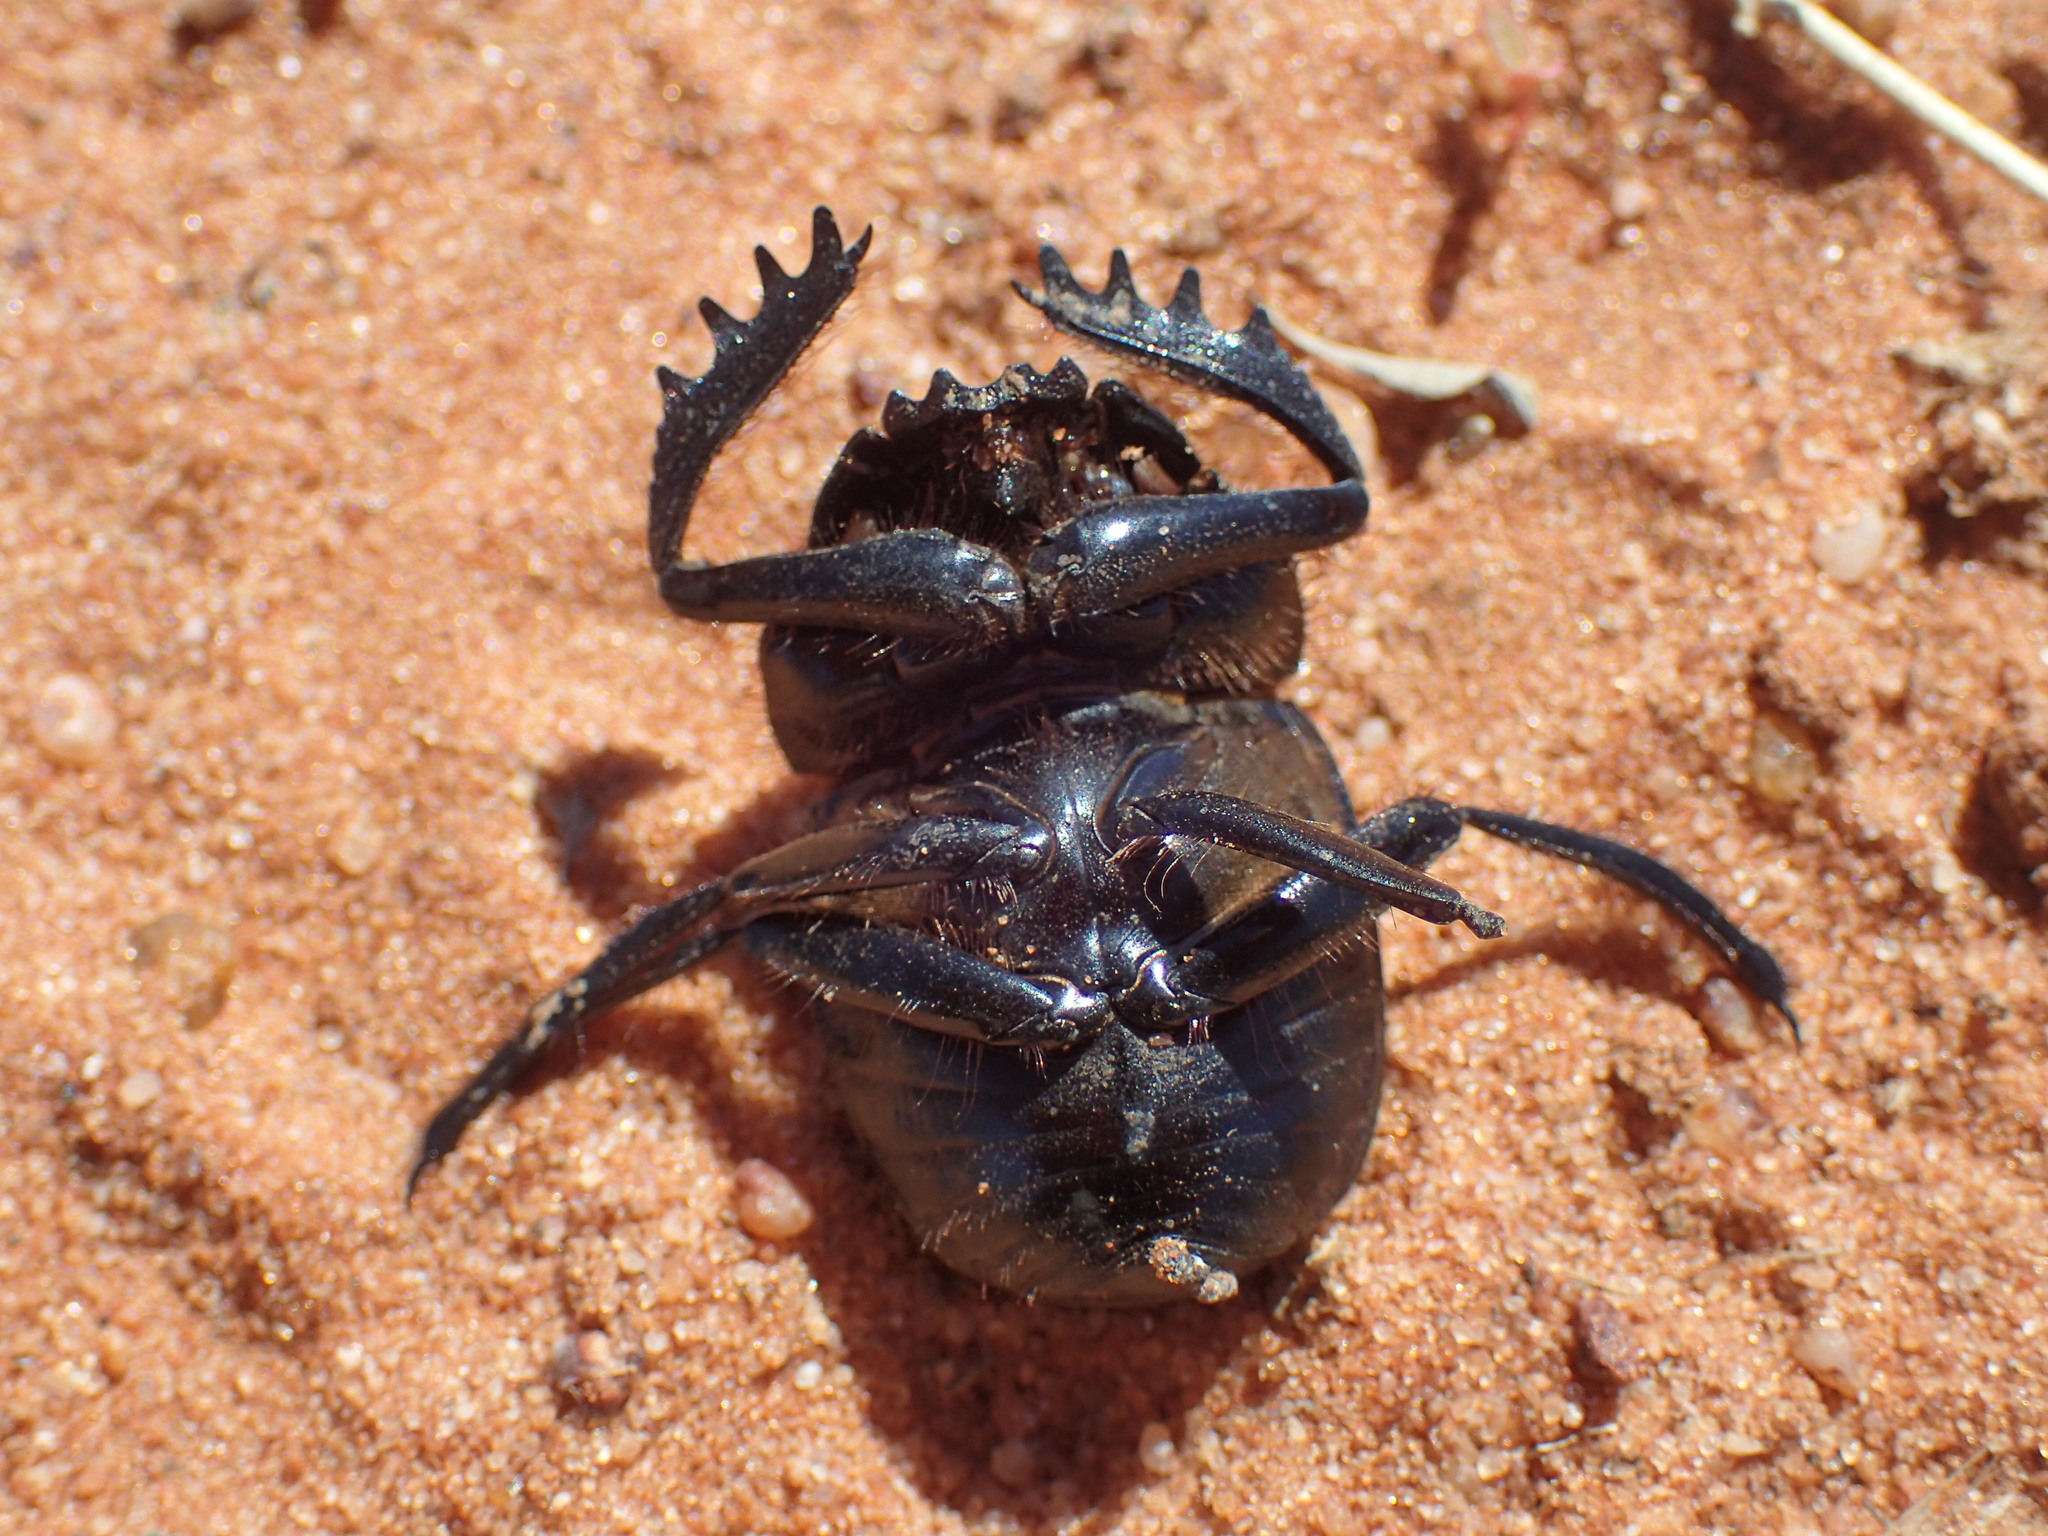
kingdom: Animalia
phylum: Arthropoda
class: Insecta
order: Coleoptera
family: Scarabaeidae
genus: Scarabaeus
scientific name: Scarabaeus proboscideus
